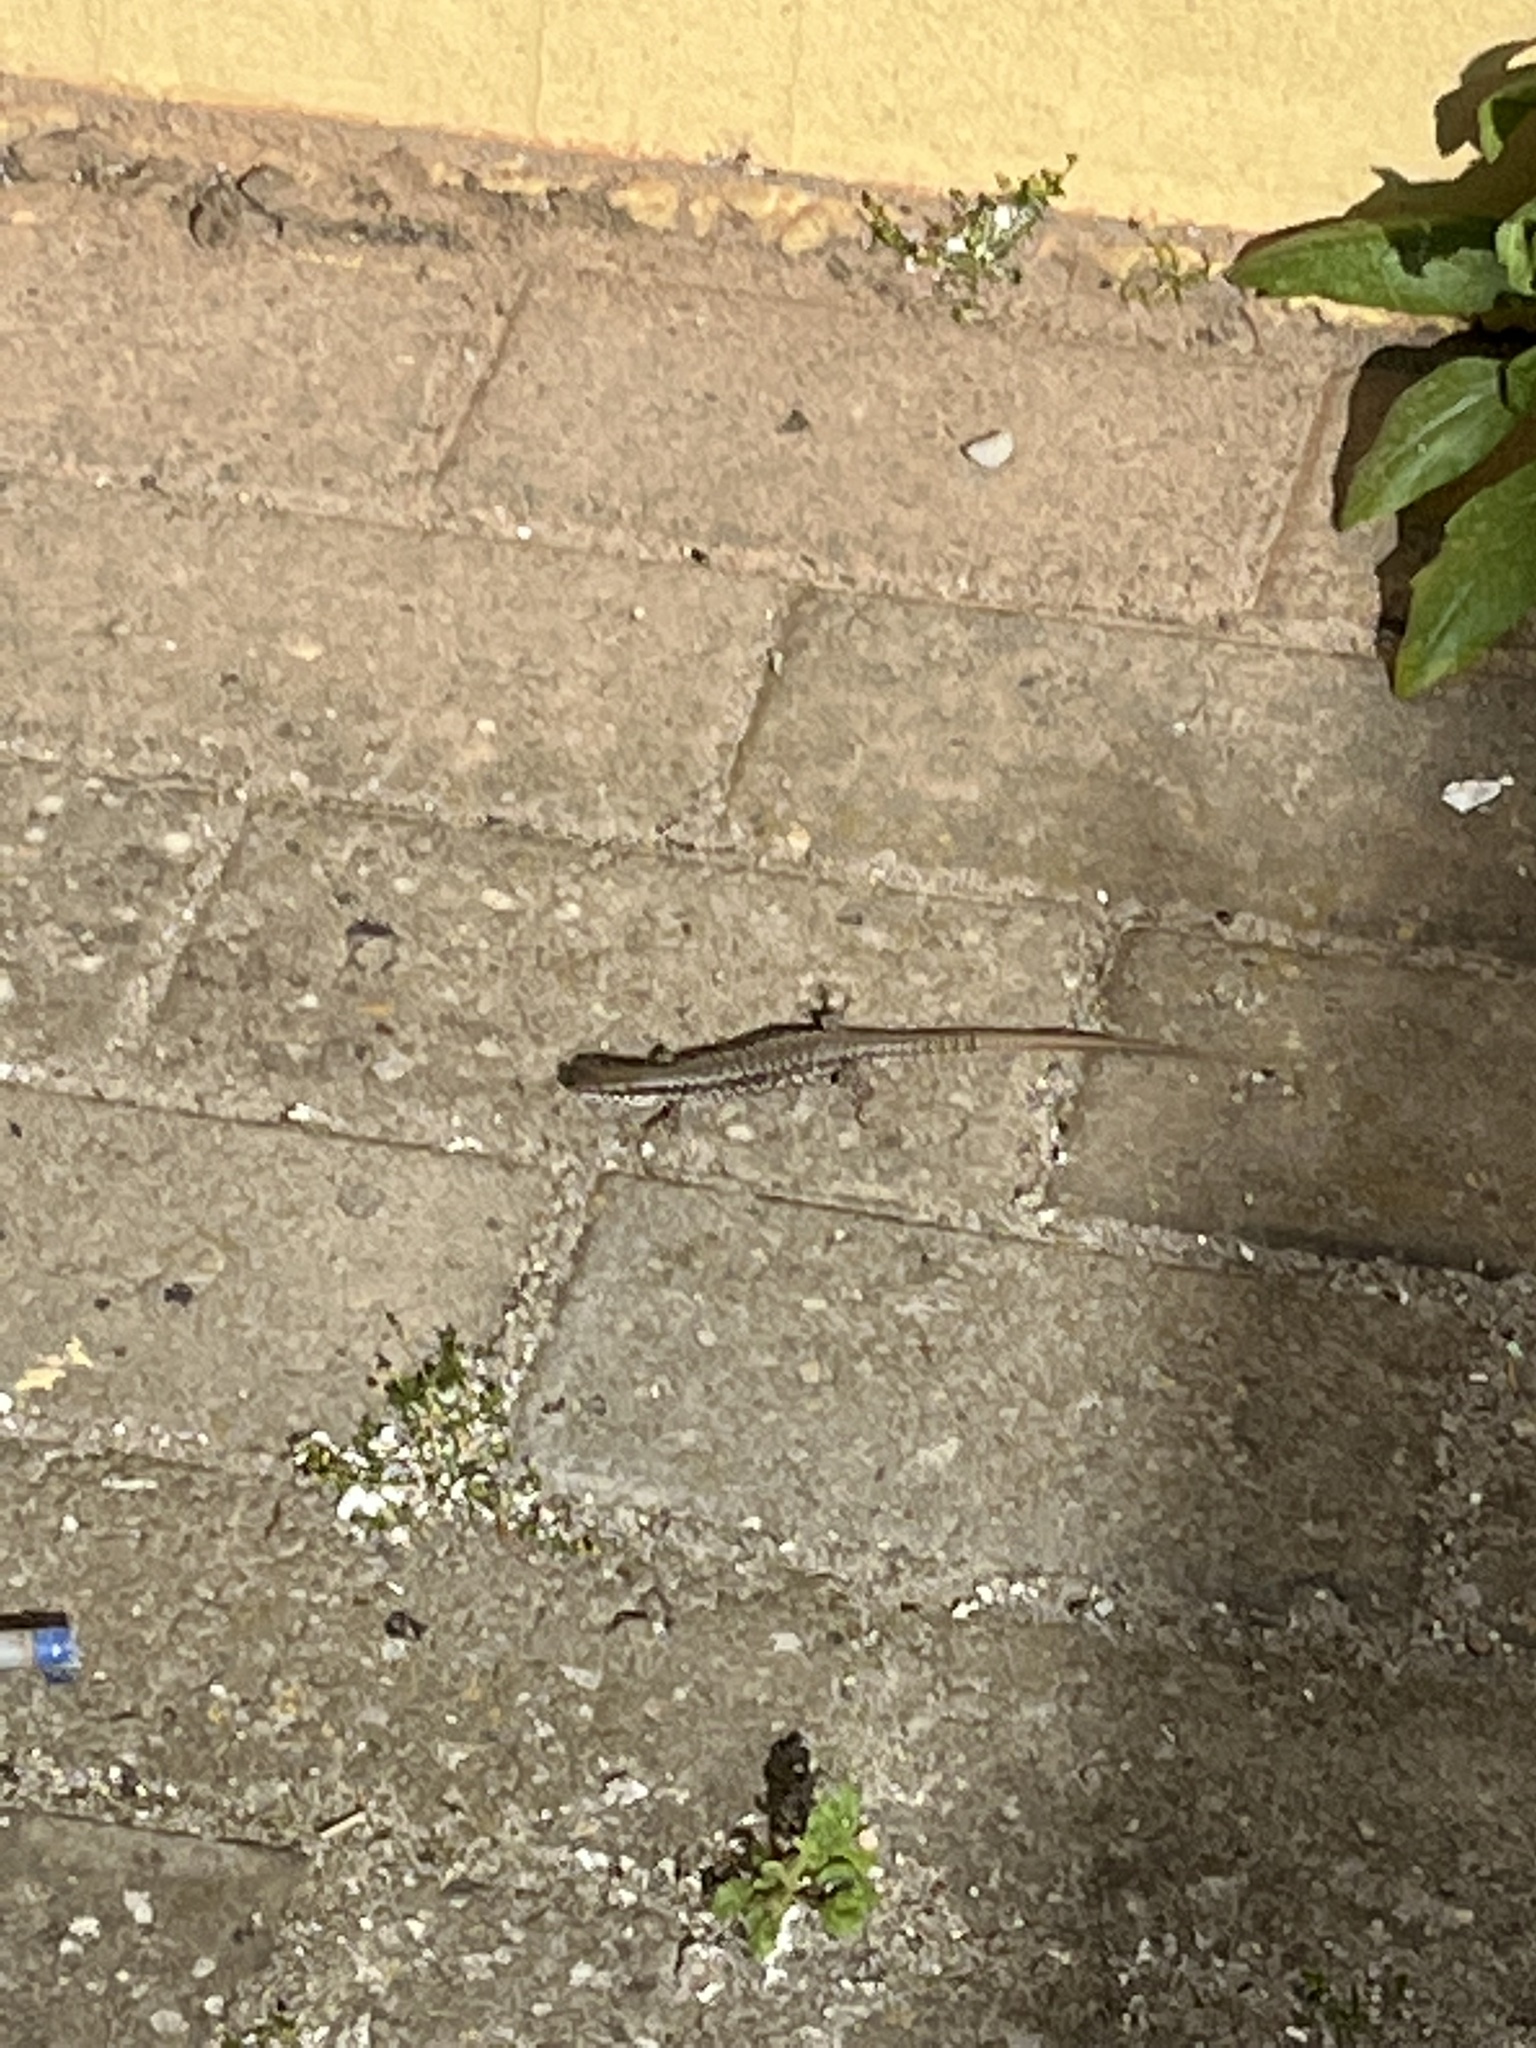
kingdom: Animalia
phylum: Chordata
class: Squamata
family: Lacertidae
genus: Podarcis
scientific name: Podarcis muralis
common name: Common wall lizard
